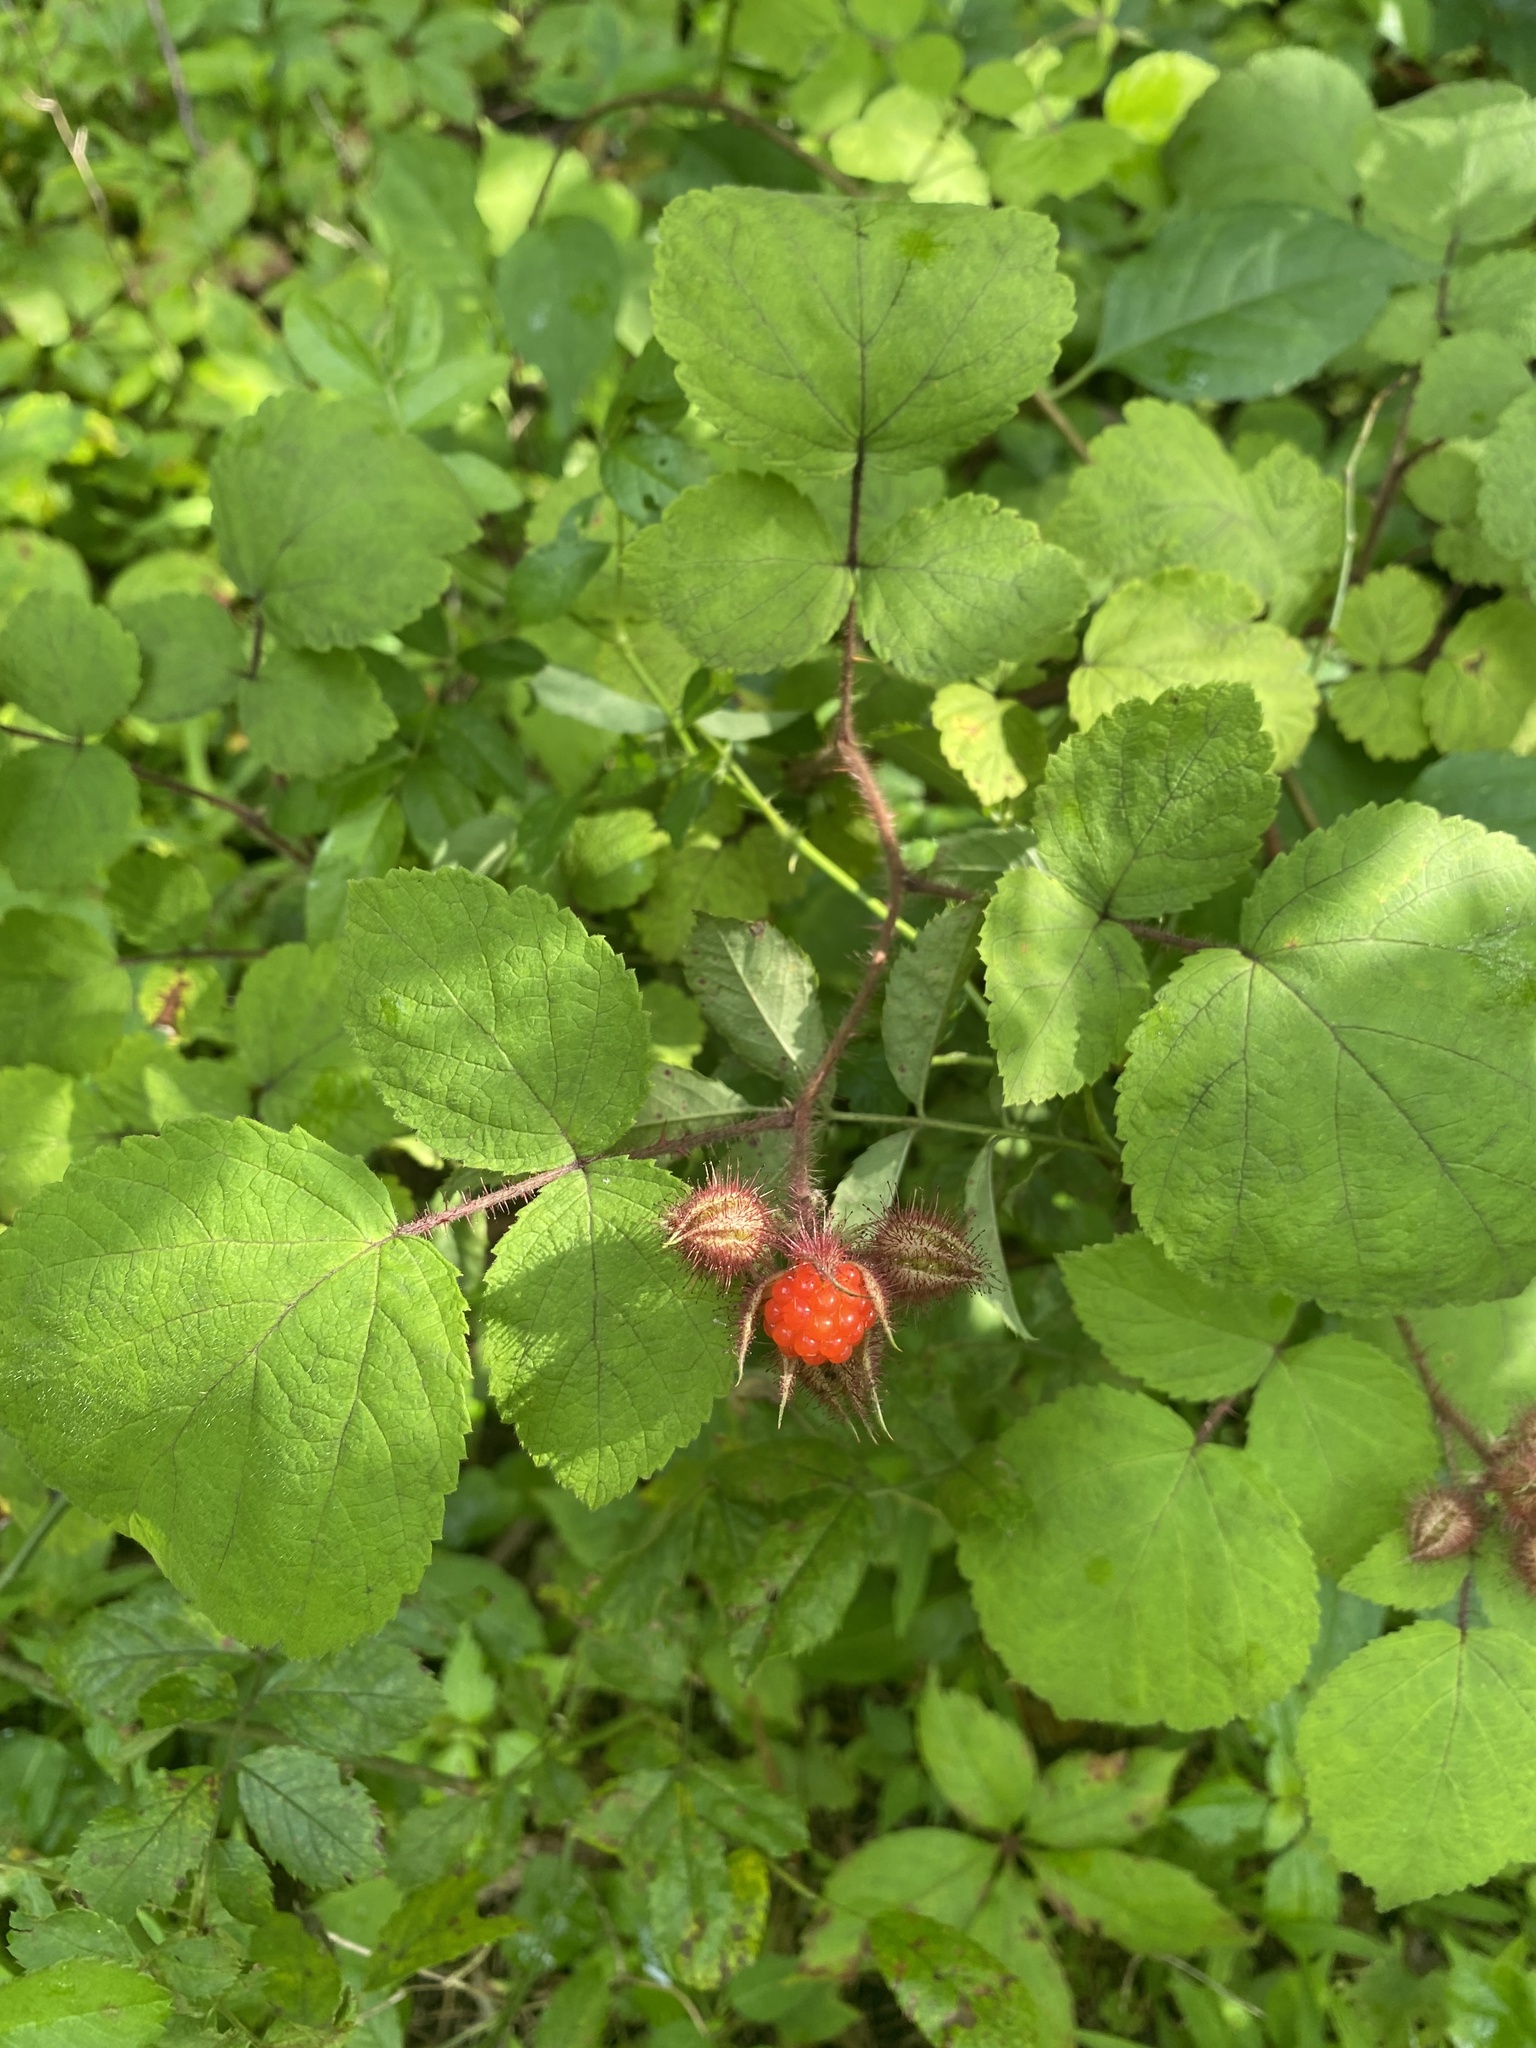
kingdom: Plantae
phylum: Tracheophyta
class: Magnoliopsida
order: Rosales
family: Rosaceae
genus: Rubus
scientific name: Rubus phoenicolasius
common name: Japanese wineberry
